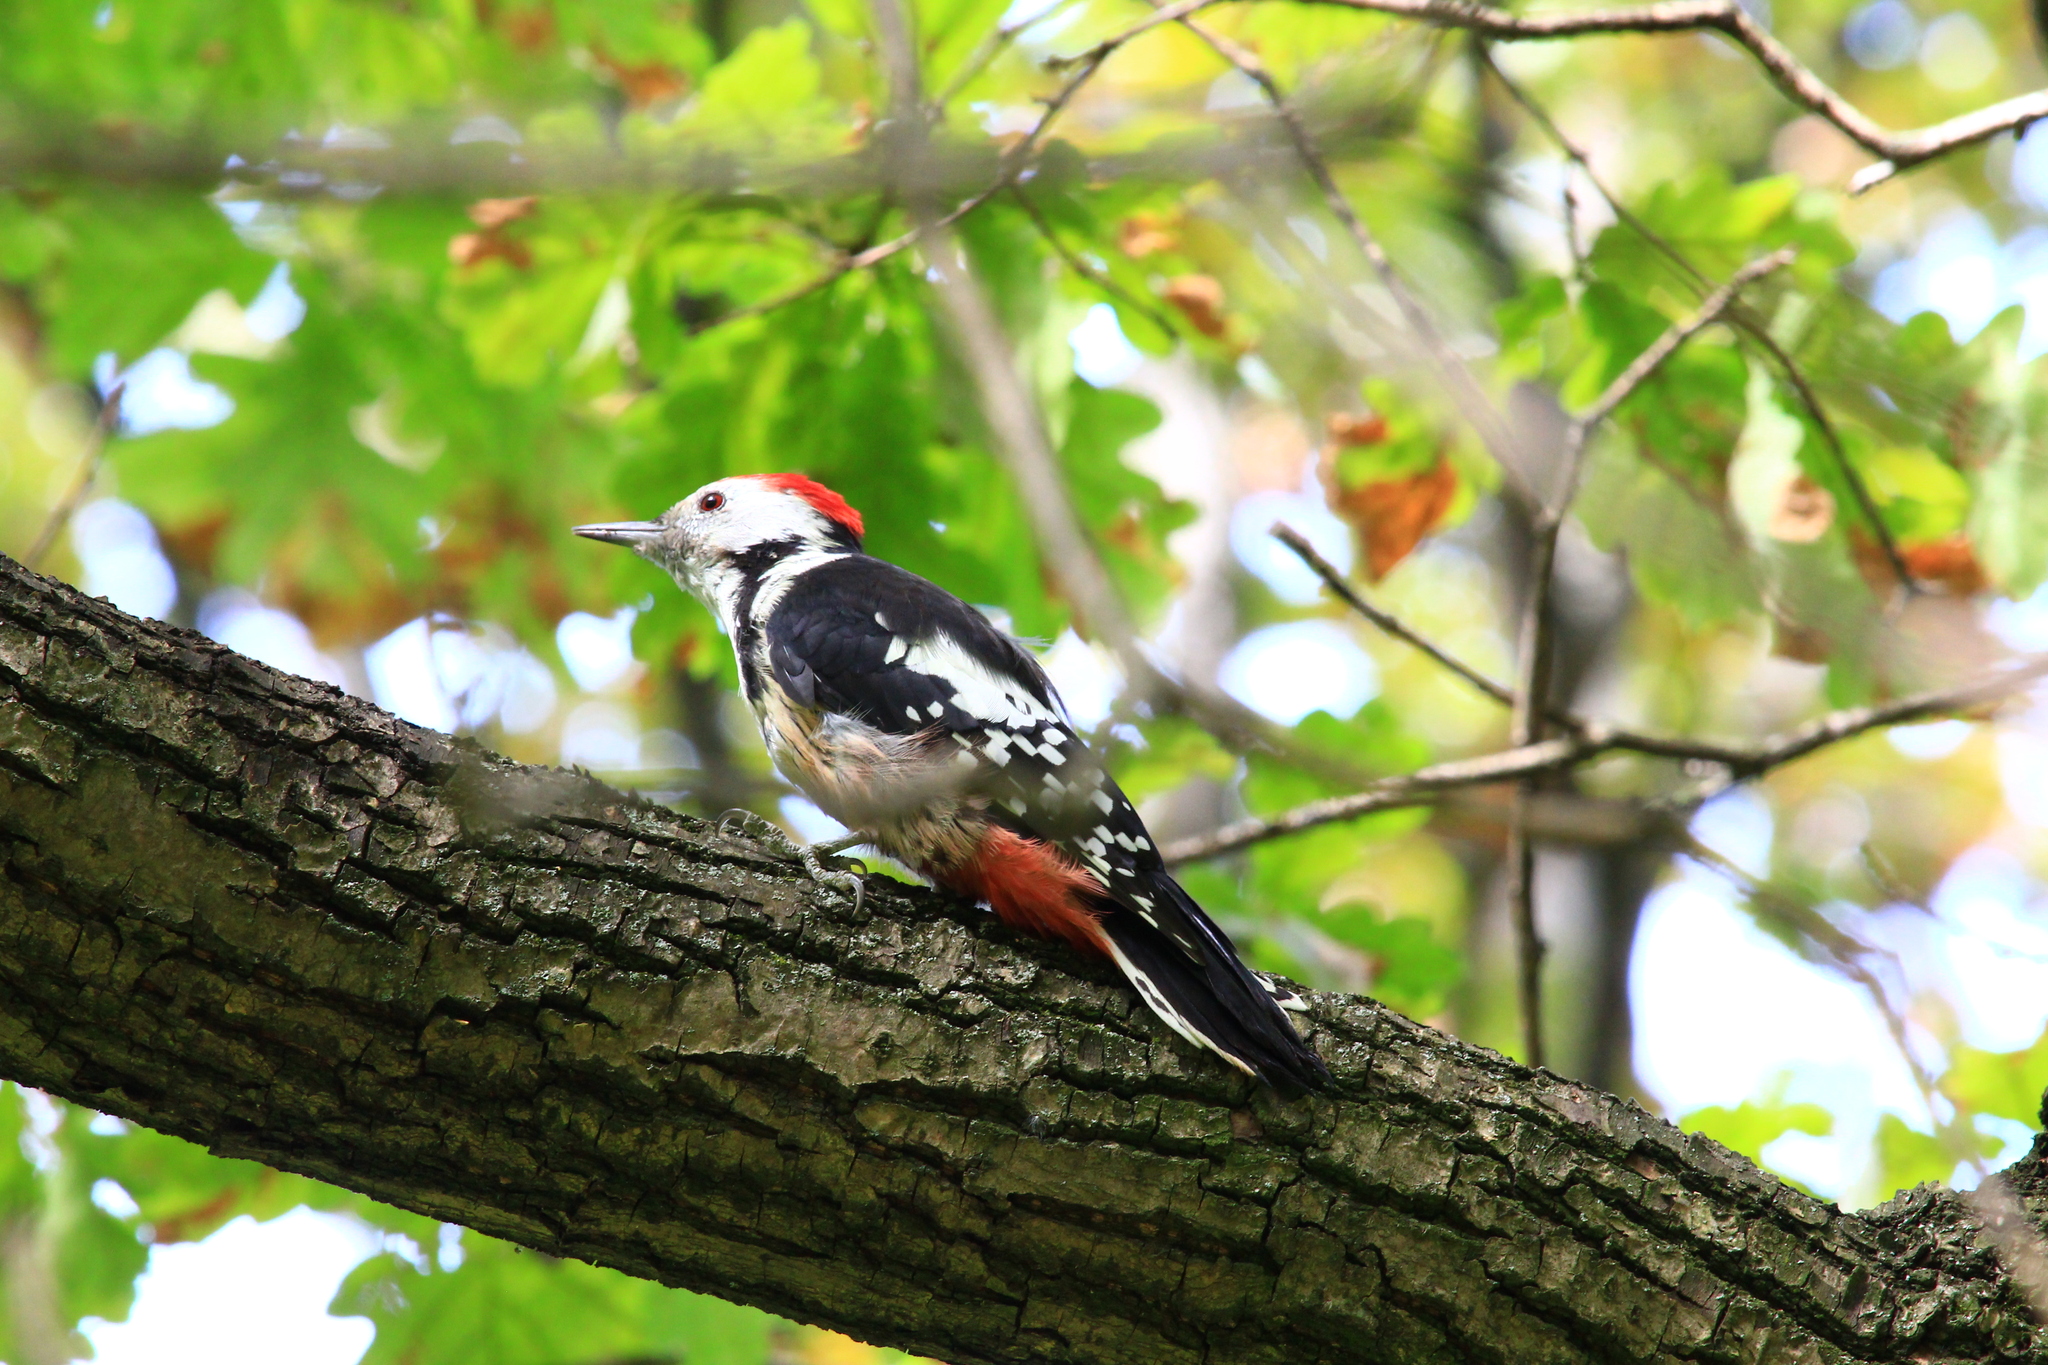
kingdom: Animalia
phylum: Chordata
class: Aves
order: Piciformes
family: Picidae
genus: Dendrocoptes
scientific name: Dendrocoptes medius
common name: Middle spotted woodpecker
